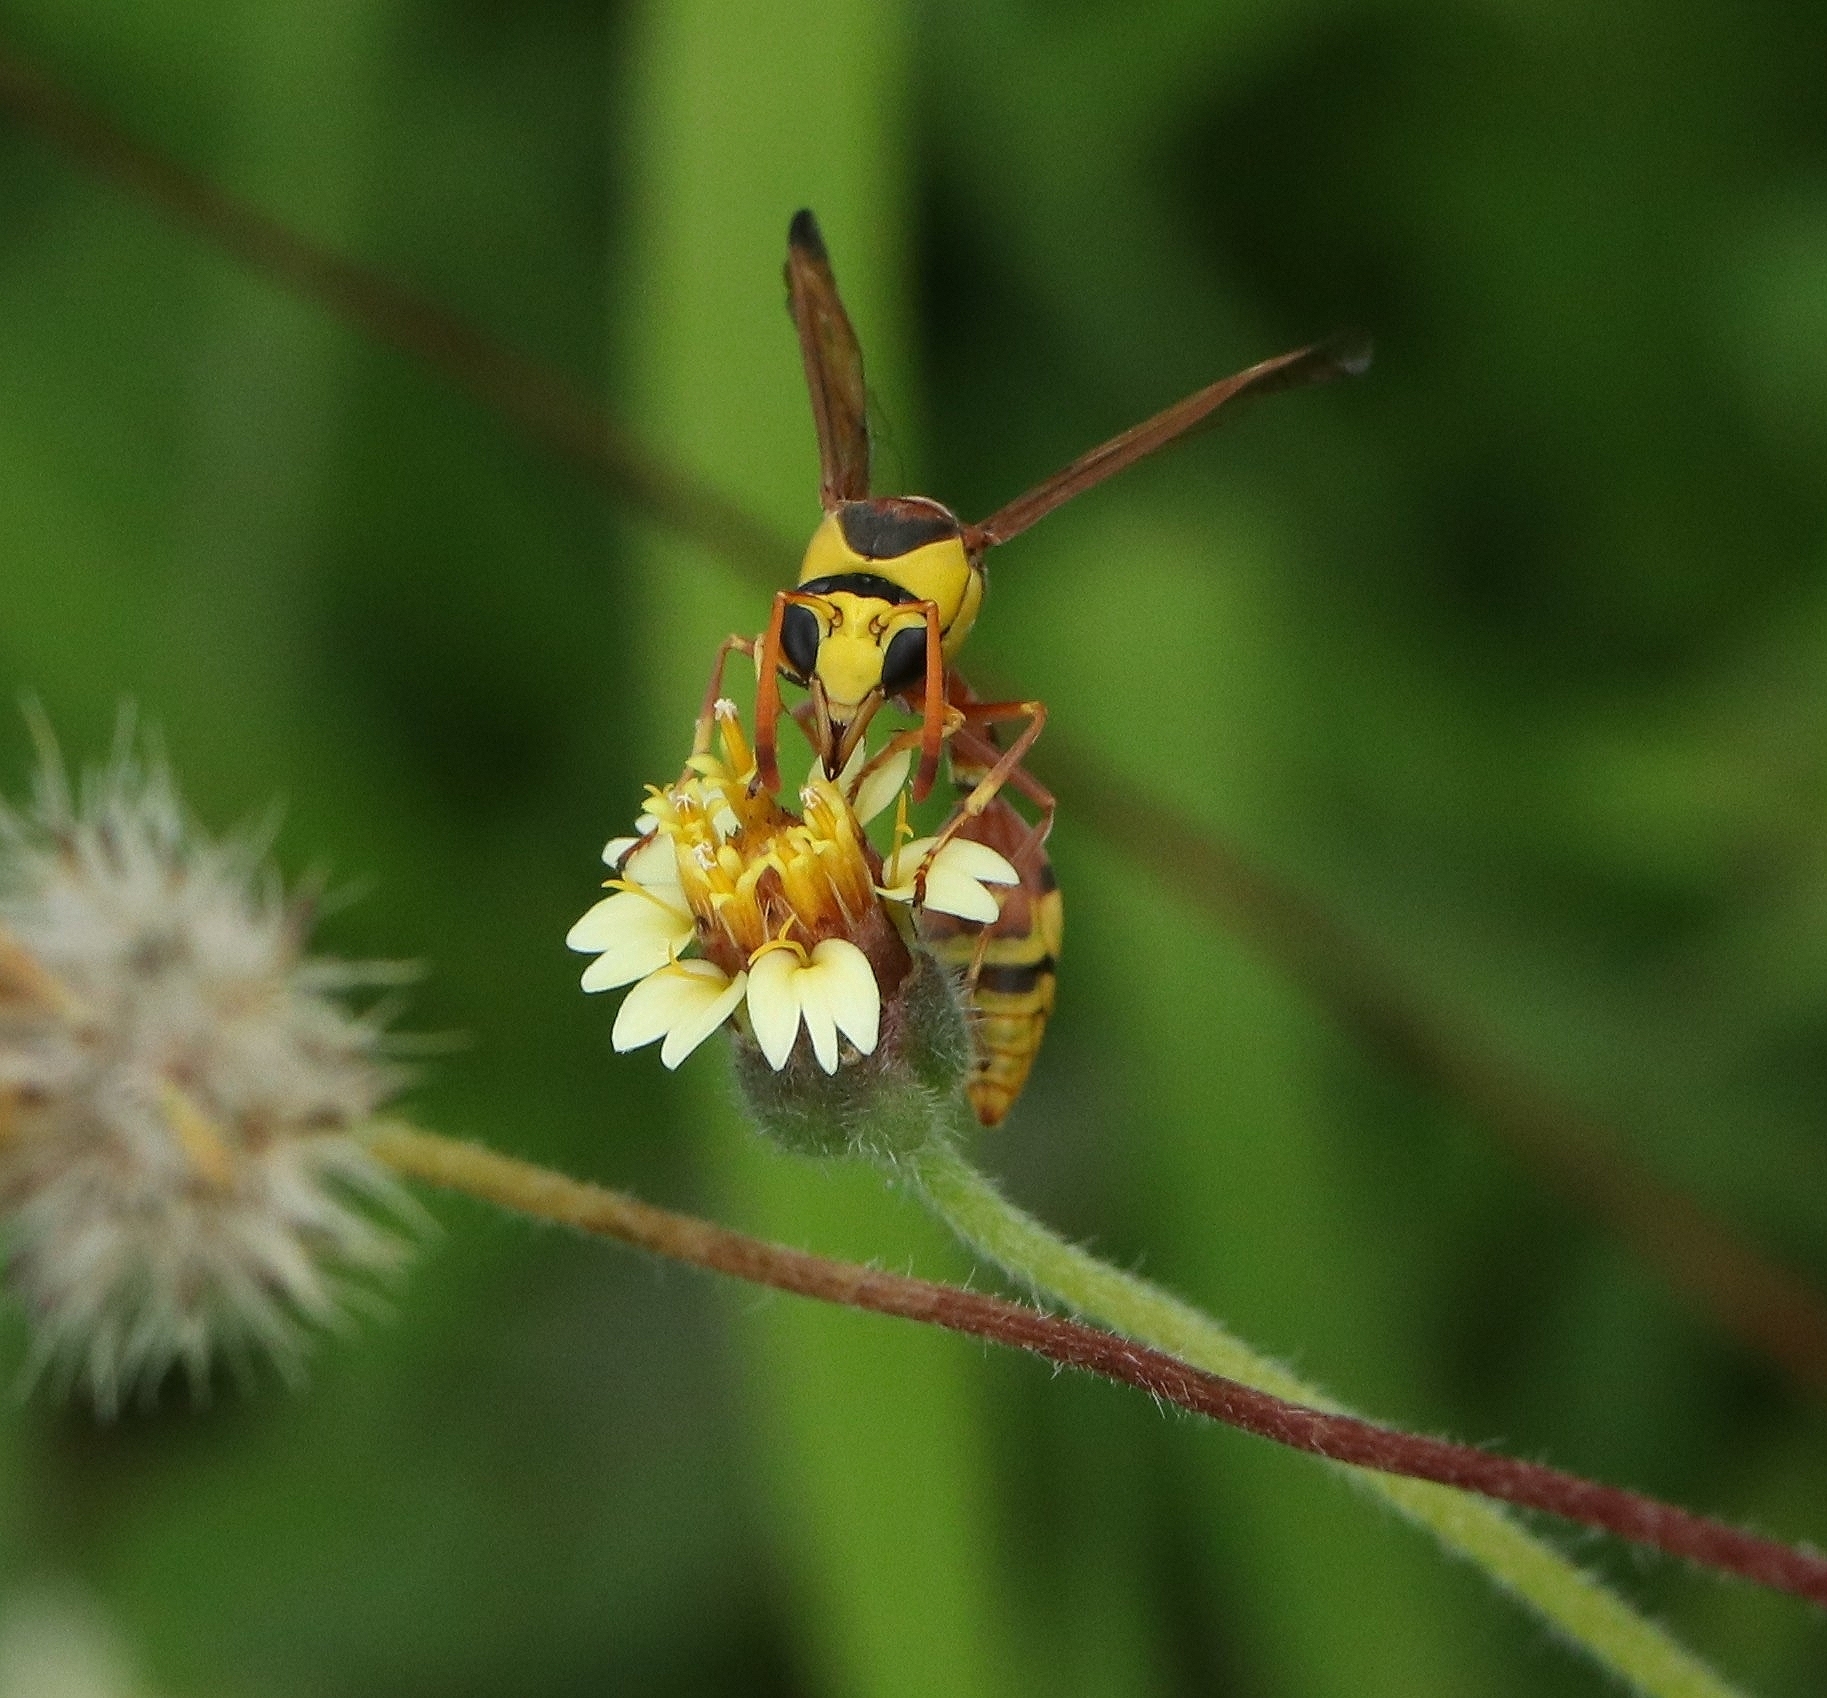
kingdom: Animalia
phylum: Arthropoda
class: Insecta
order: Hymenoptera
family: Eumenidae
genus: Delta
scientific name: Delta esuriens
